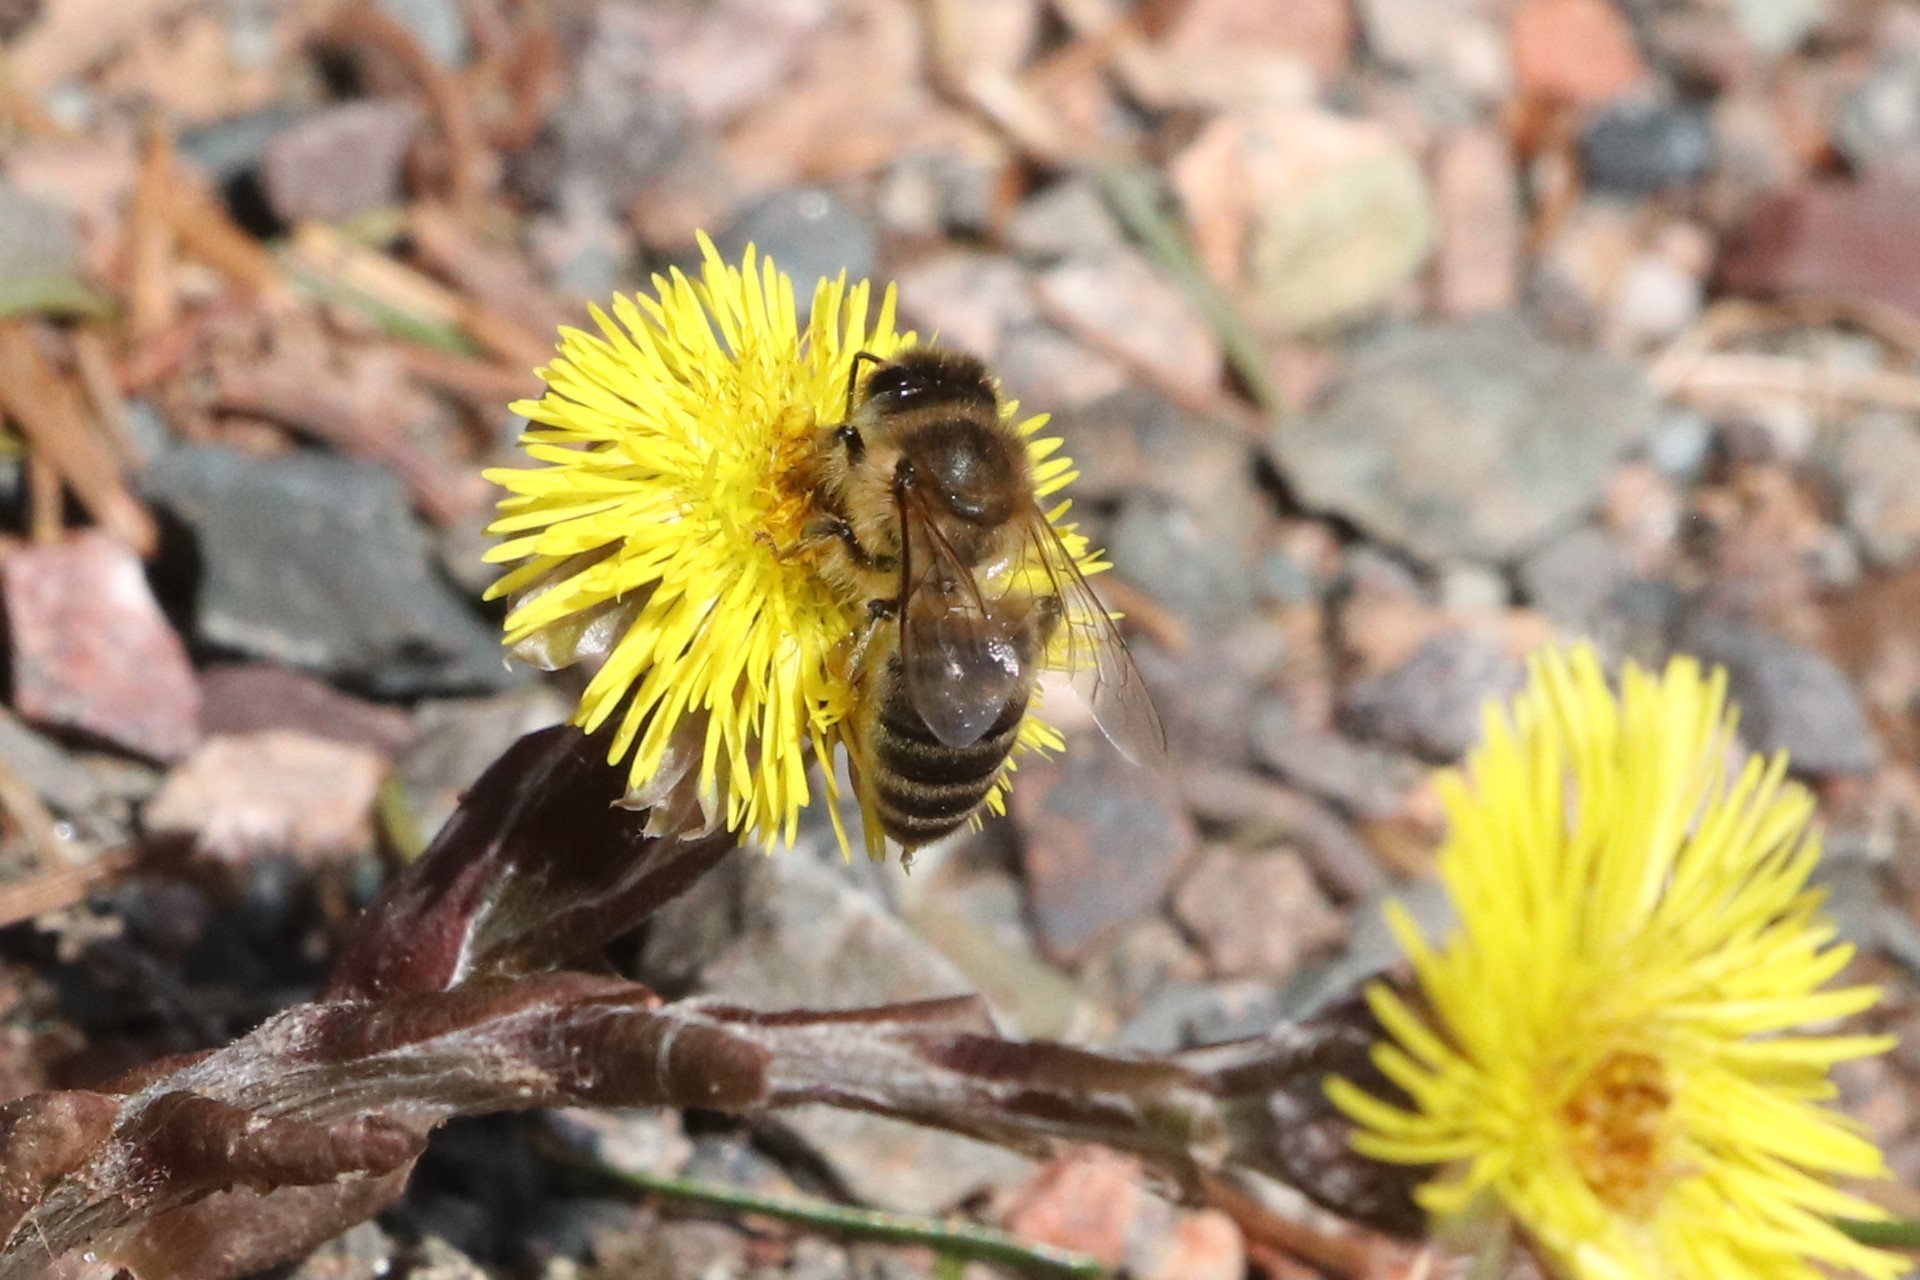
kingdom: Animalia
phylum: Arthropoda
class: Insecta
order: Hymenoptera
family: Apidae
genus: Apis
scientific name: Apis mellifera
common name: Honey bee
